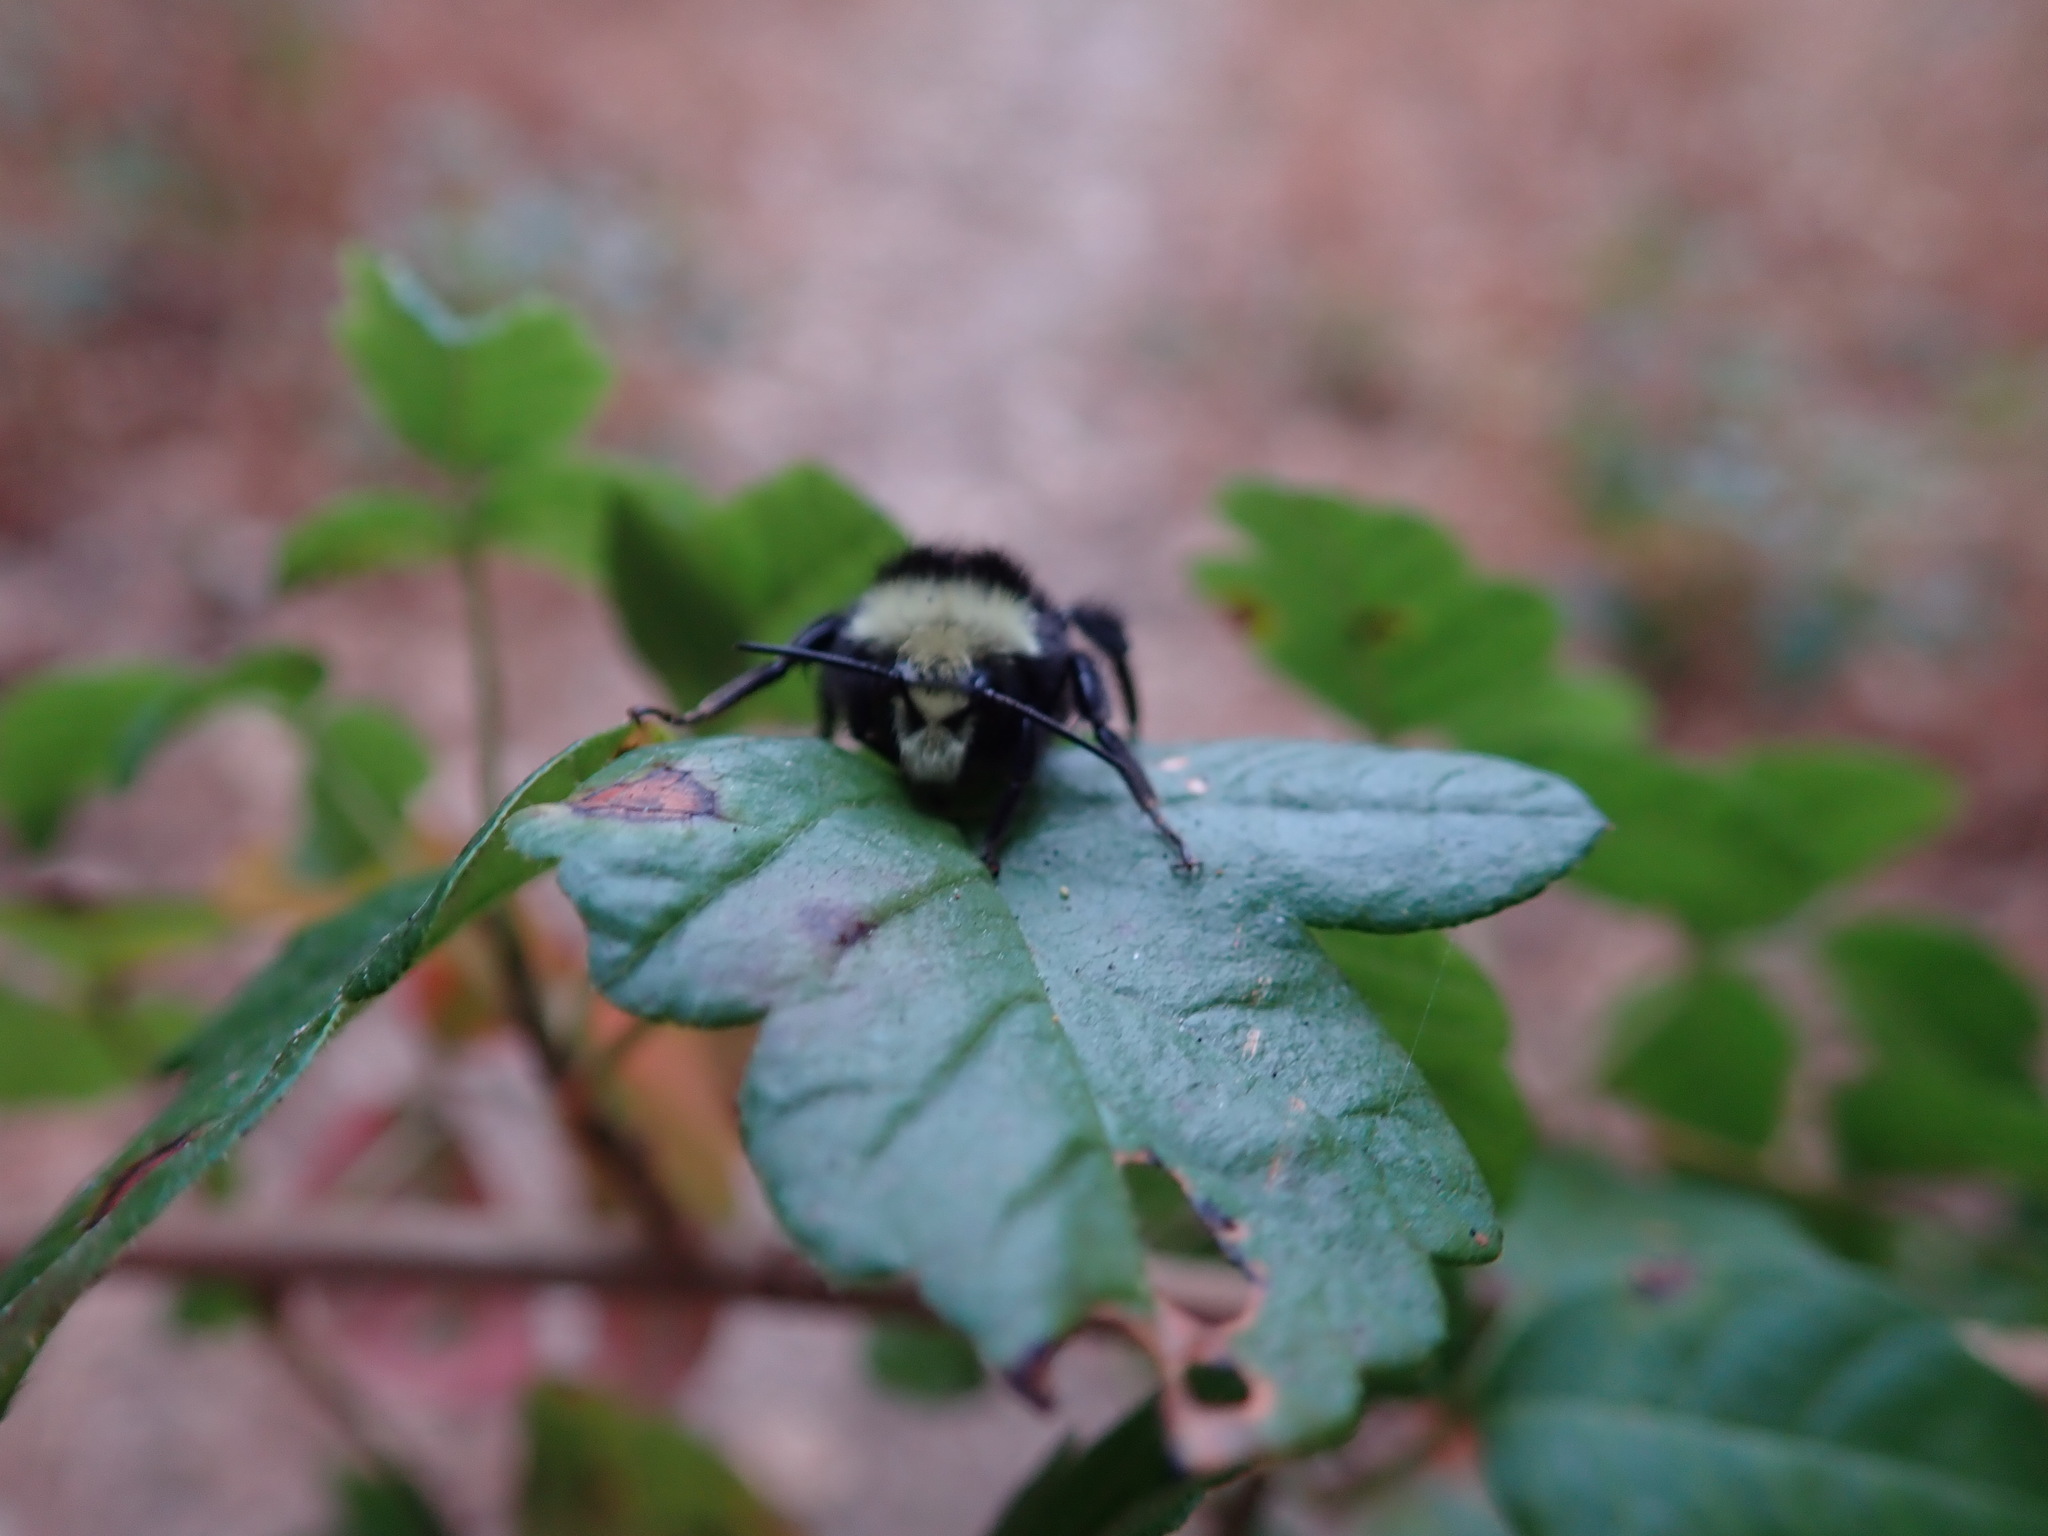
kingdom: Animalia
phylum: Arthropoda
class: Insecta
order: Hymenoptera
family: Apidae
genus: Bombus
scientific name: Bombus vosnesenskii
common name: Vosnesensky bumble bee
